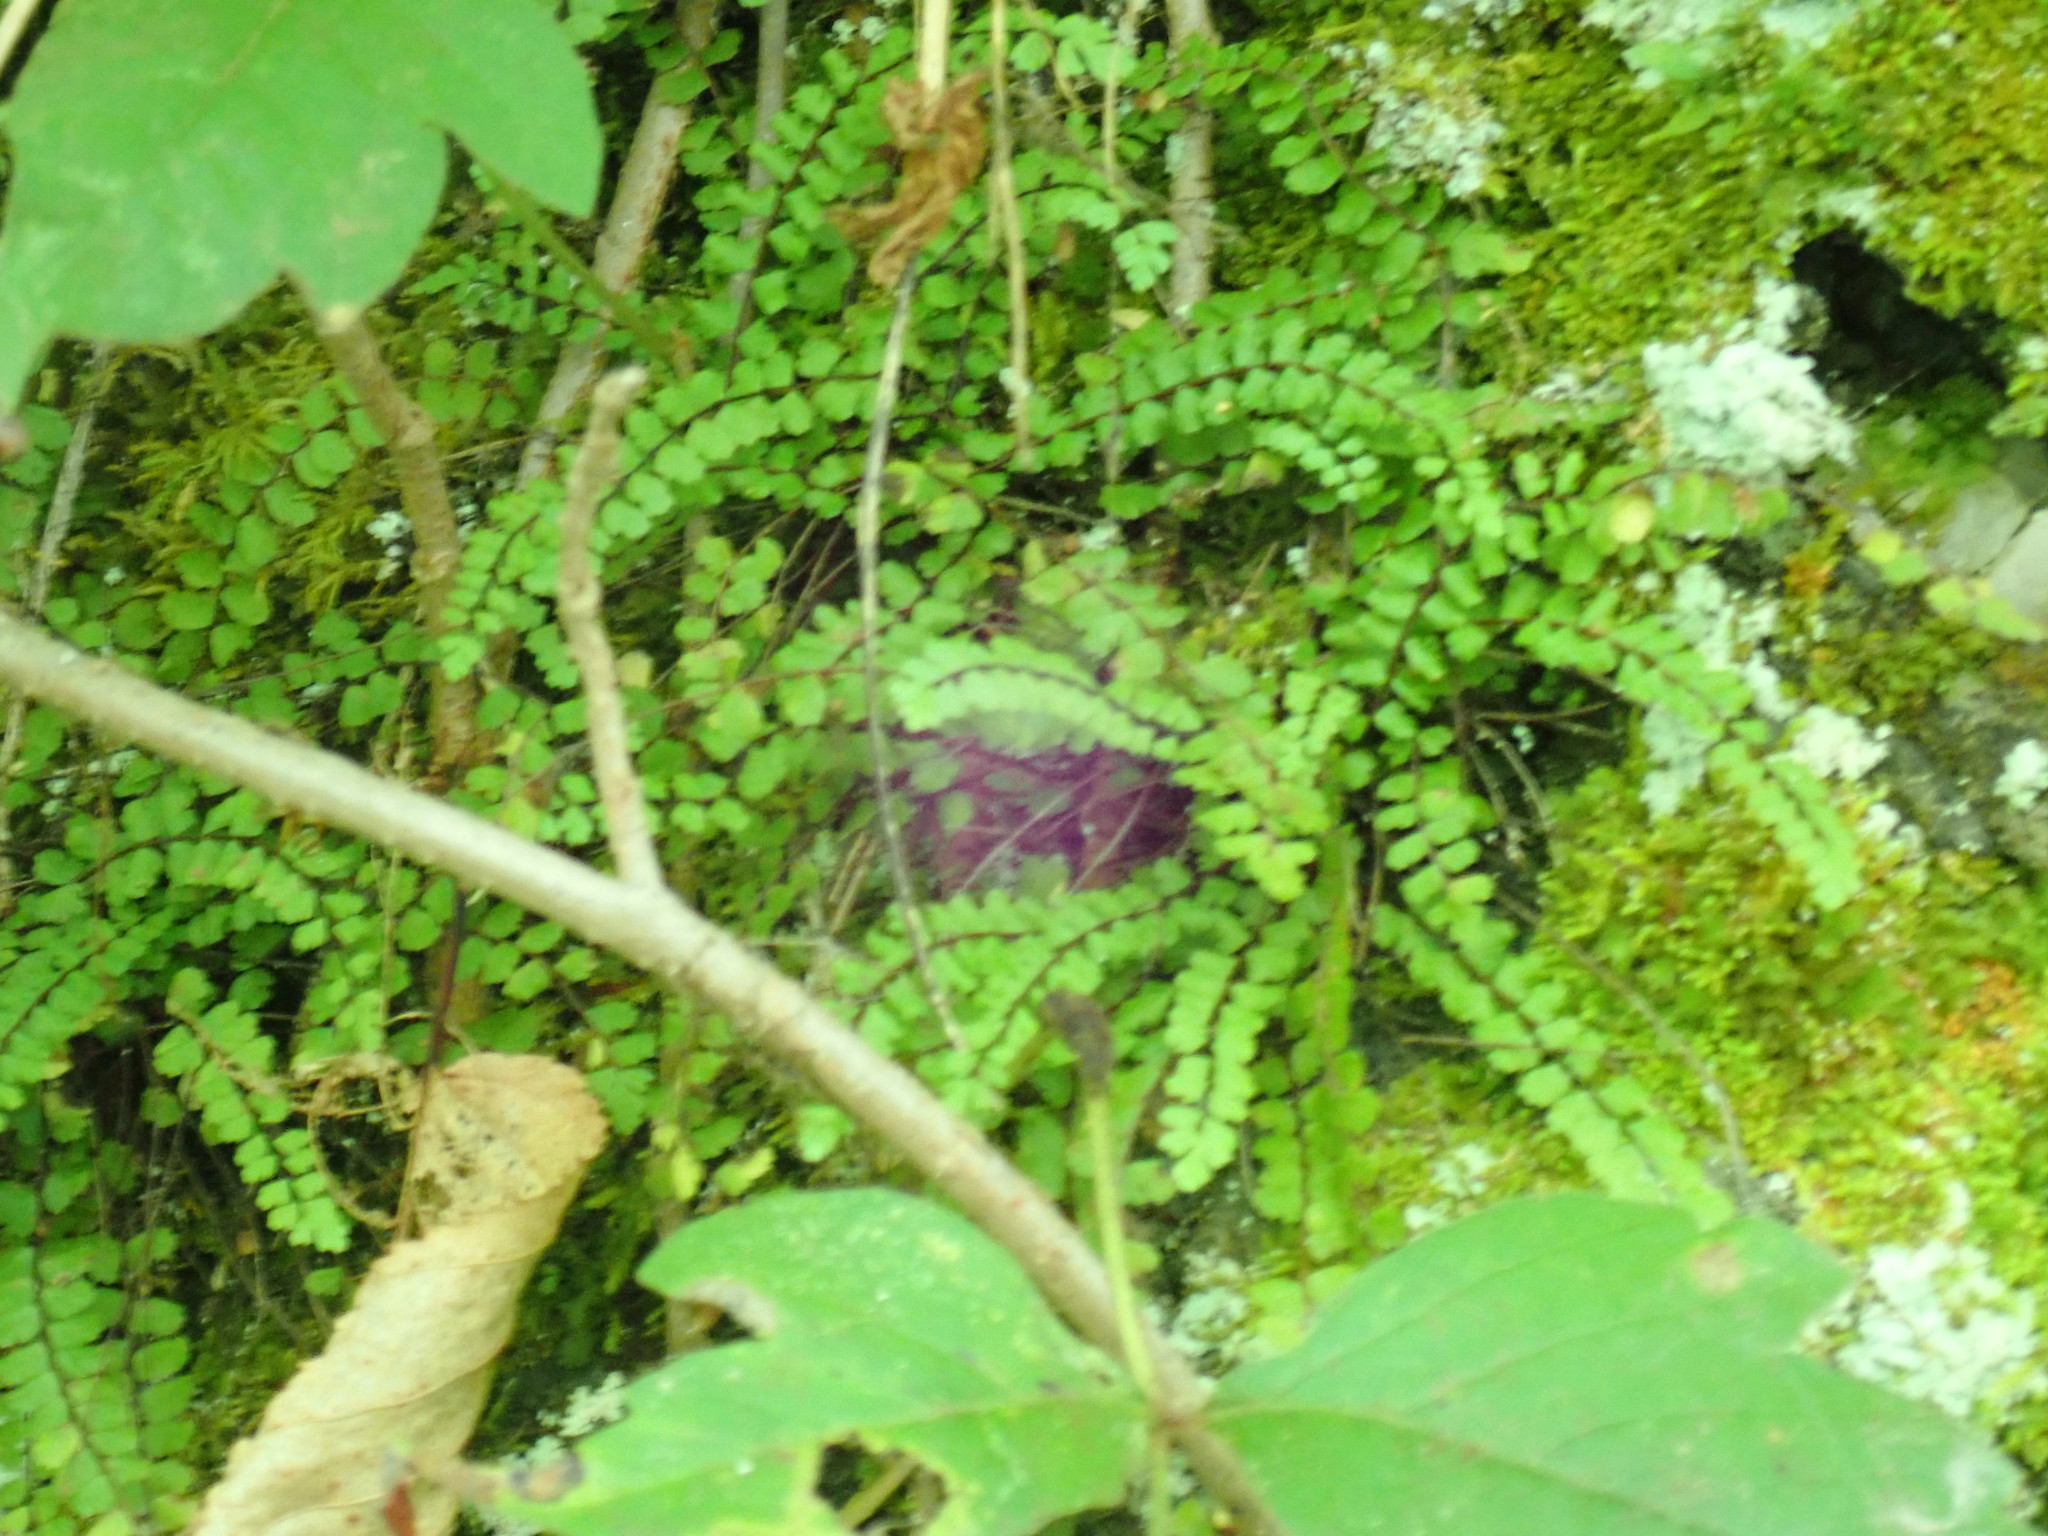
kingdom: Plantae
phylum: Tracheophyta
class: Polypodiopsida
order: Polypodiales
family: Aspleniaceae
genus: Asplenium
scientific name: Asplenium trichomanes
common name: Maidenhair spleenwort
